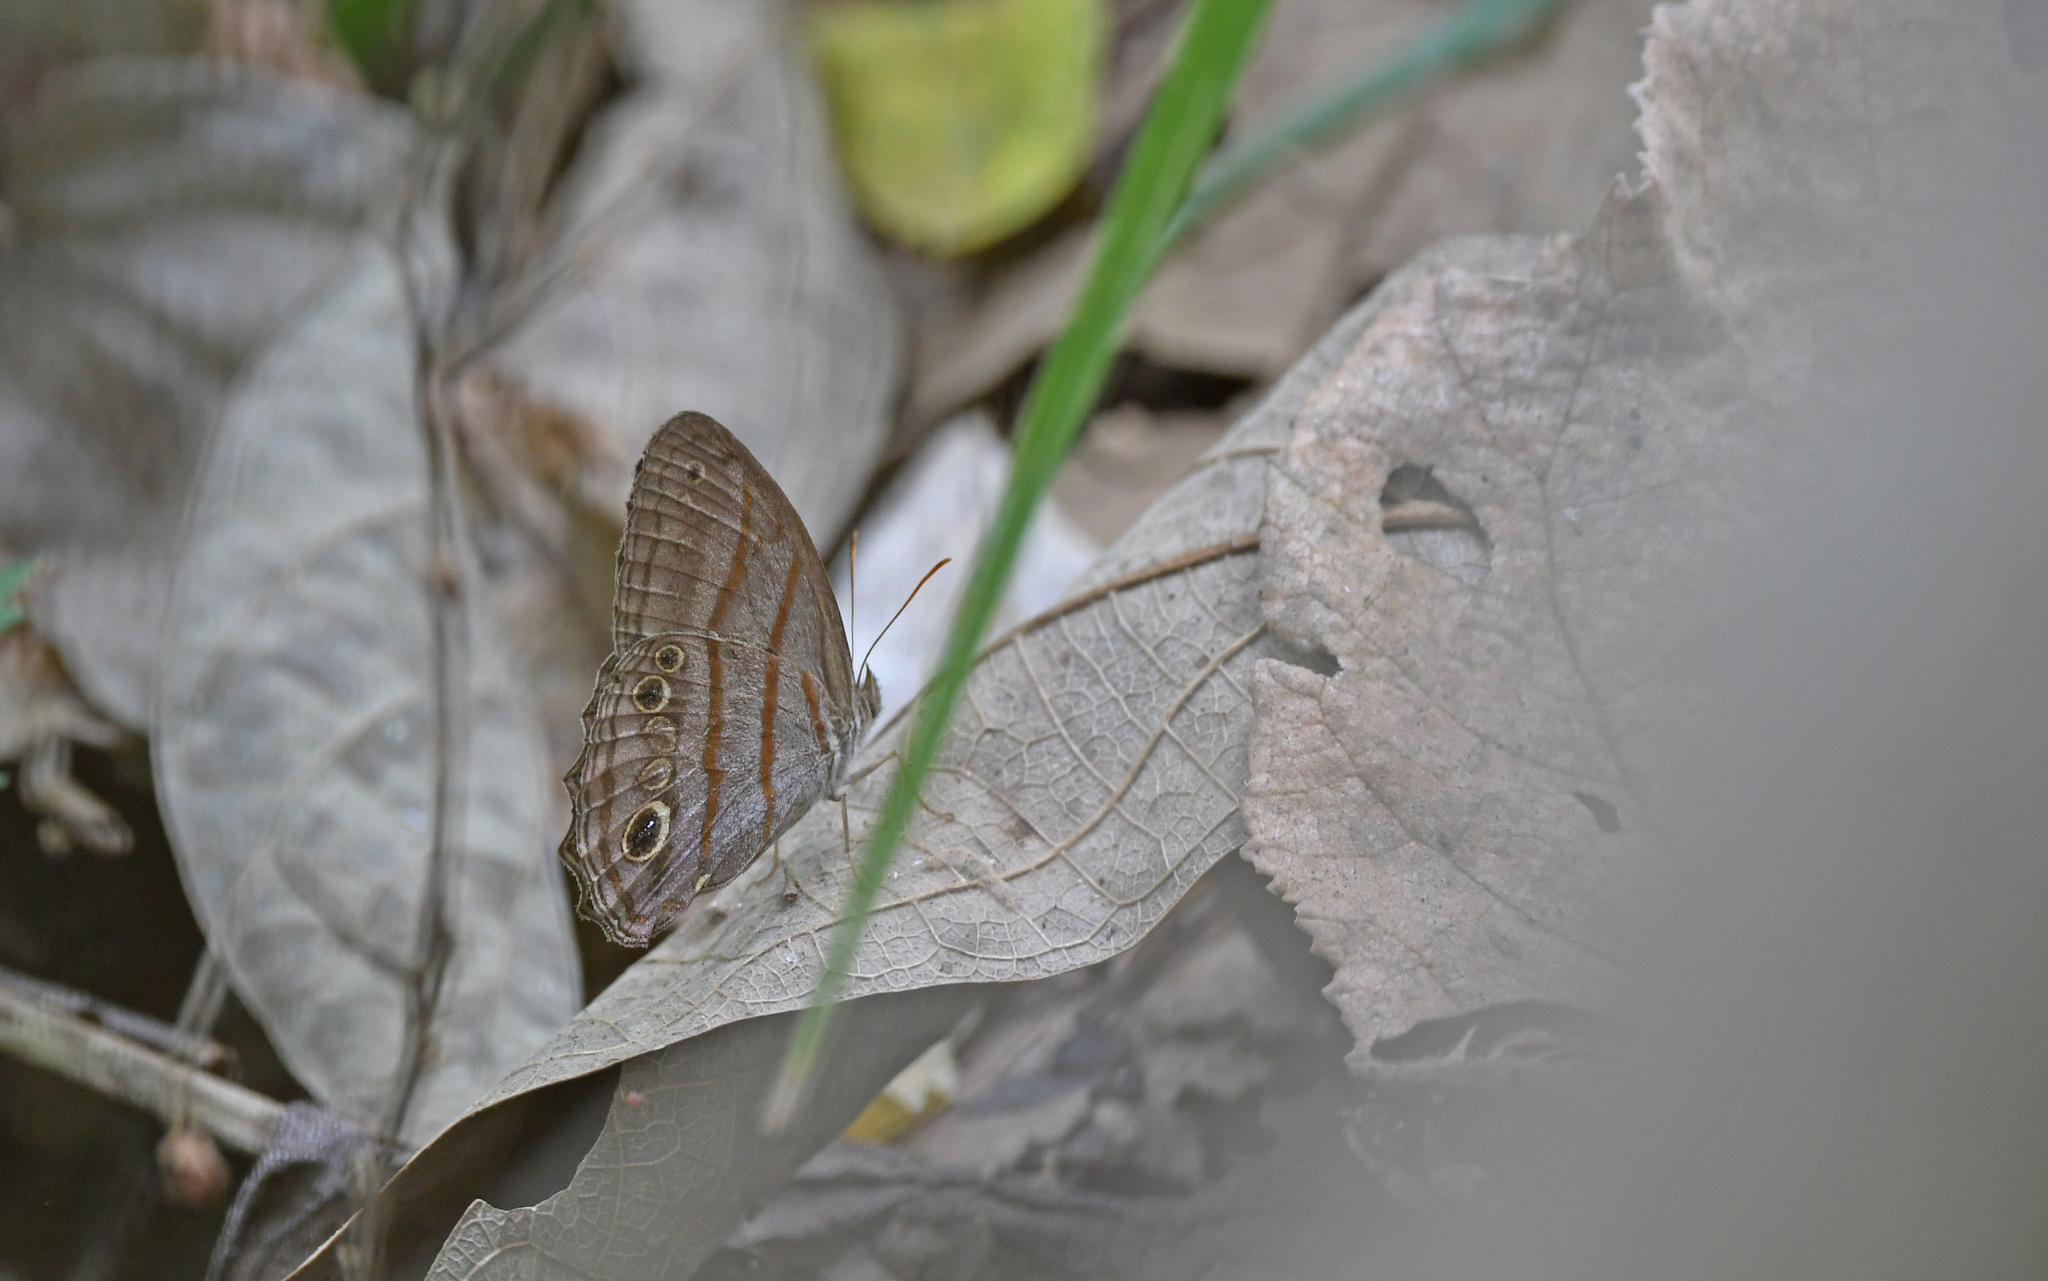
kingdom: Animalia
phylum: Arthropoda
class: Insecta
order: Lepidoptera
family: Nymphalidae
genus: Magneuptychia
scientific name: Magneuptychia libye
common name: Blue-gray satyr
